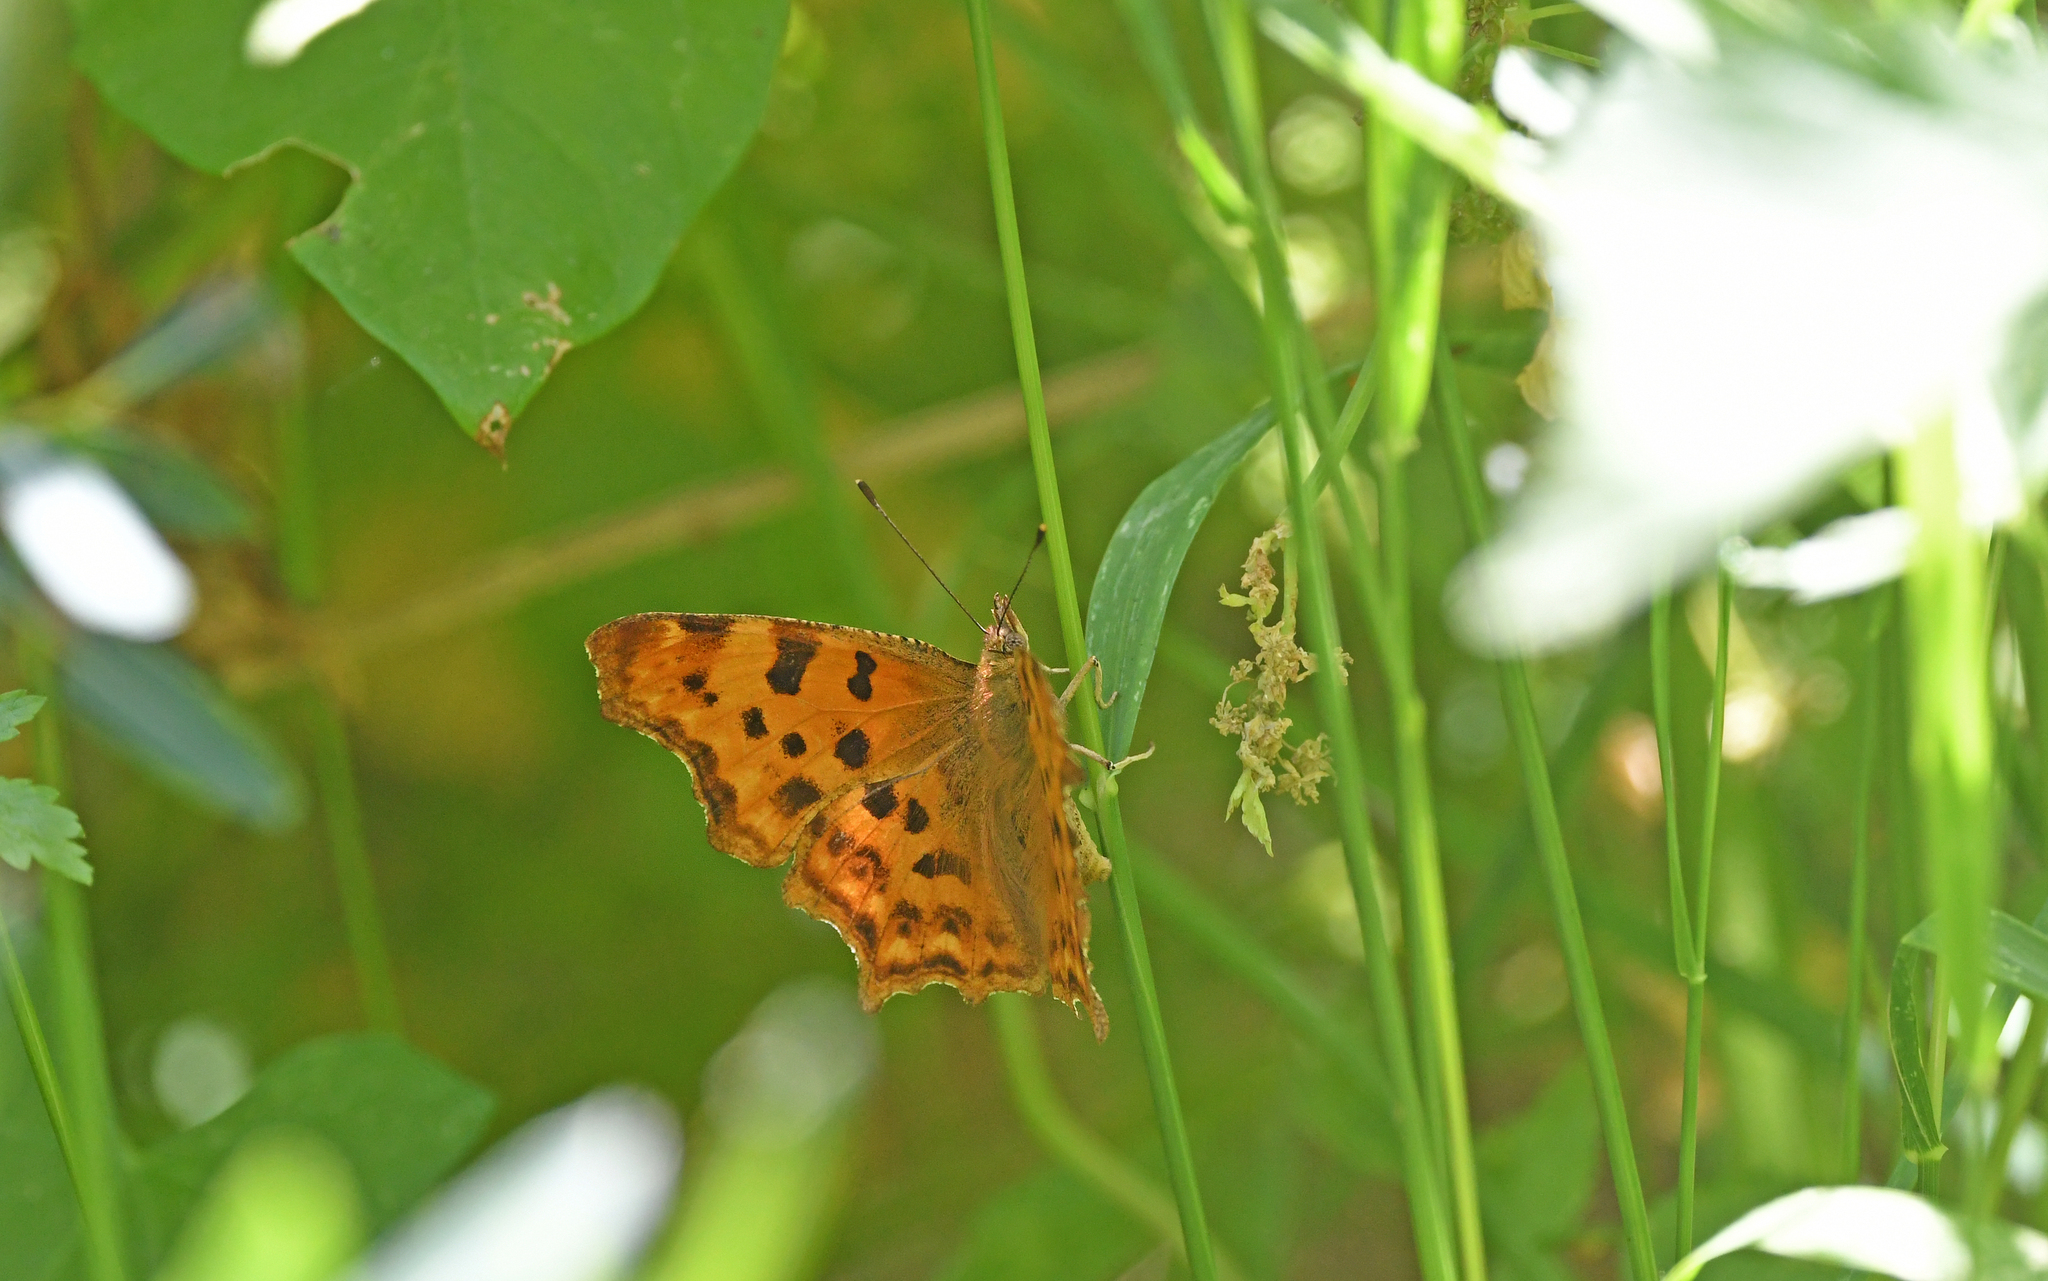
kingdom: Animalia
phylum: Arthropoda
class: Insecta
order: Lepidoptera
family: Nymphalidae
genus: Polygonia
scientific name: Polygonia c-album
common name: Comma
